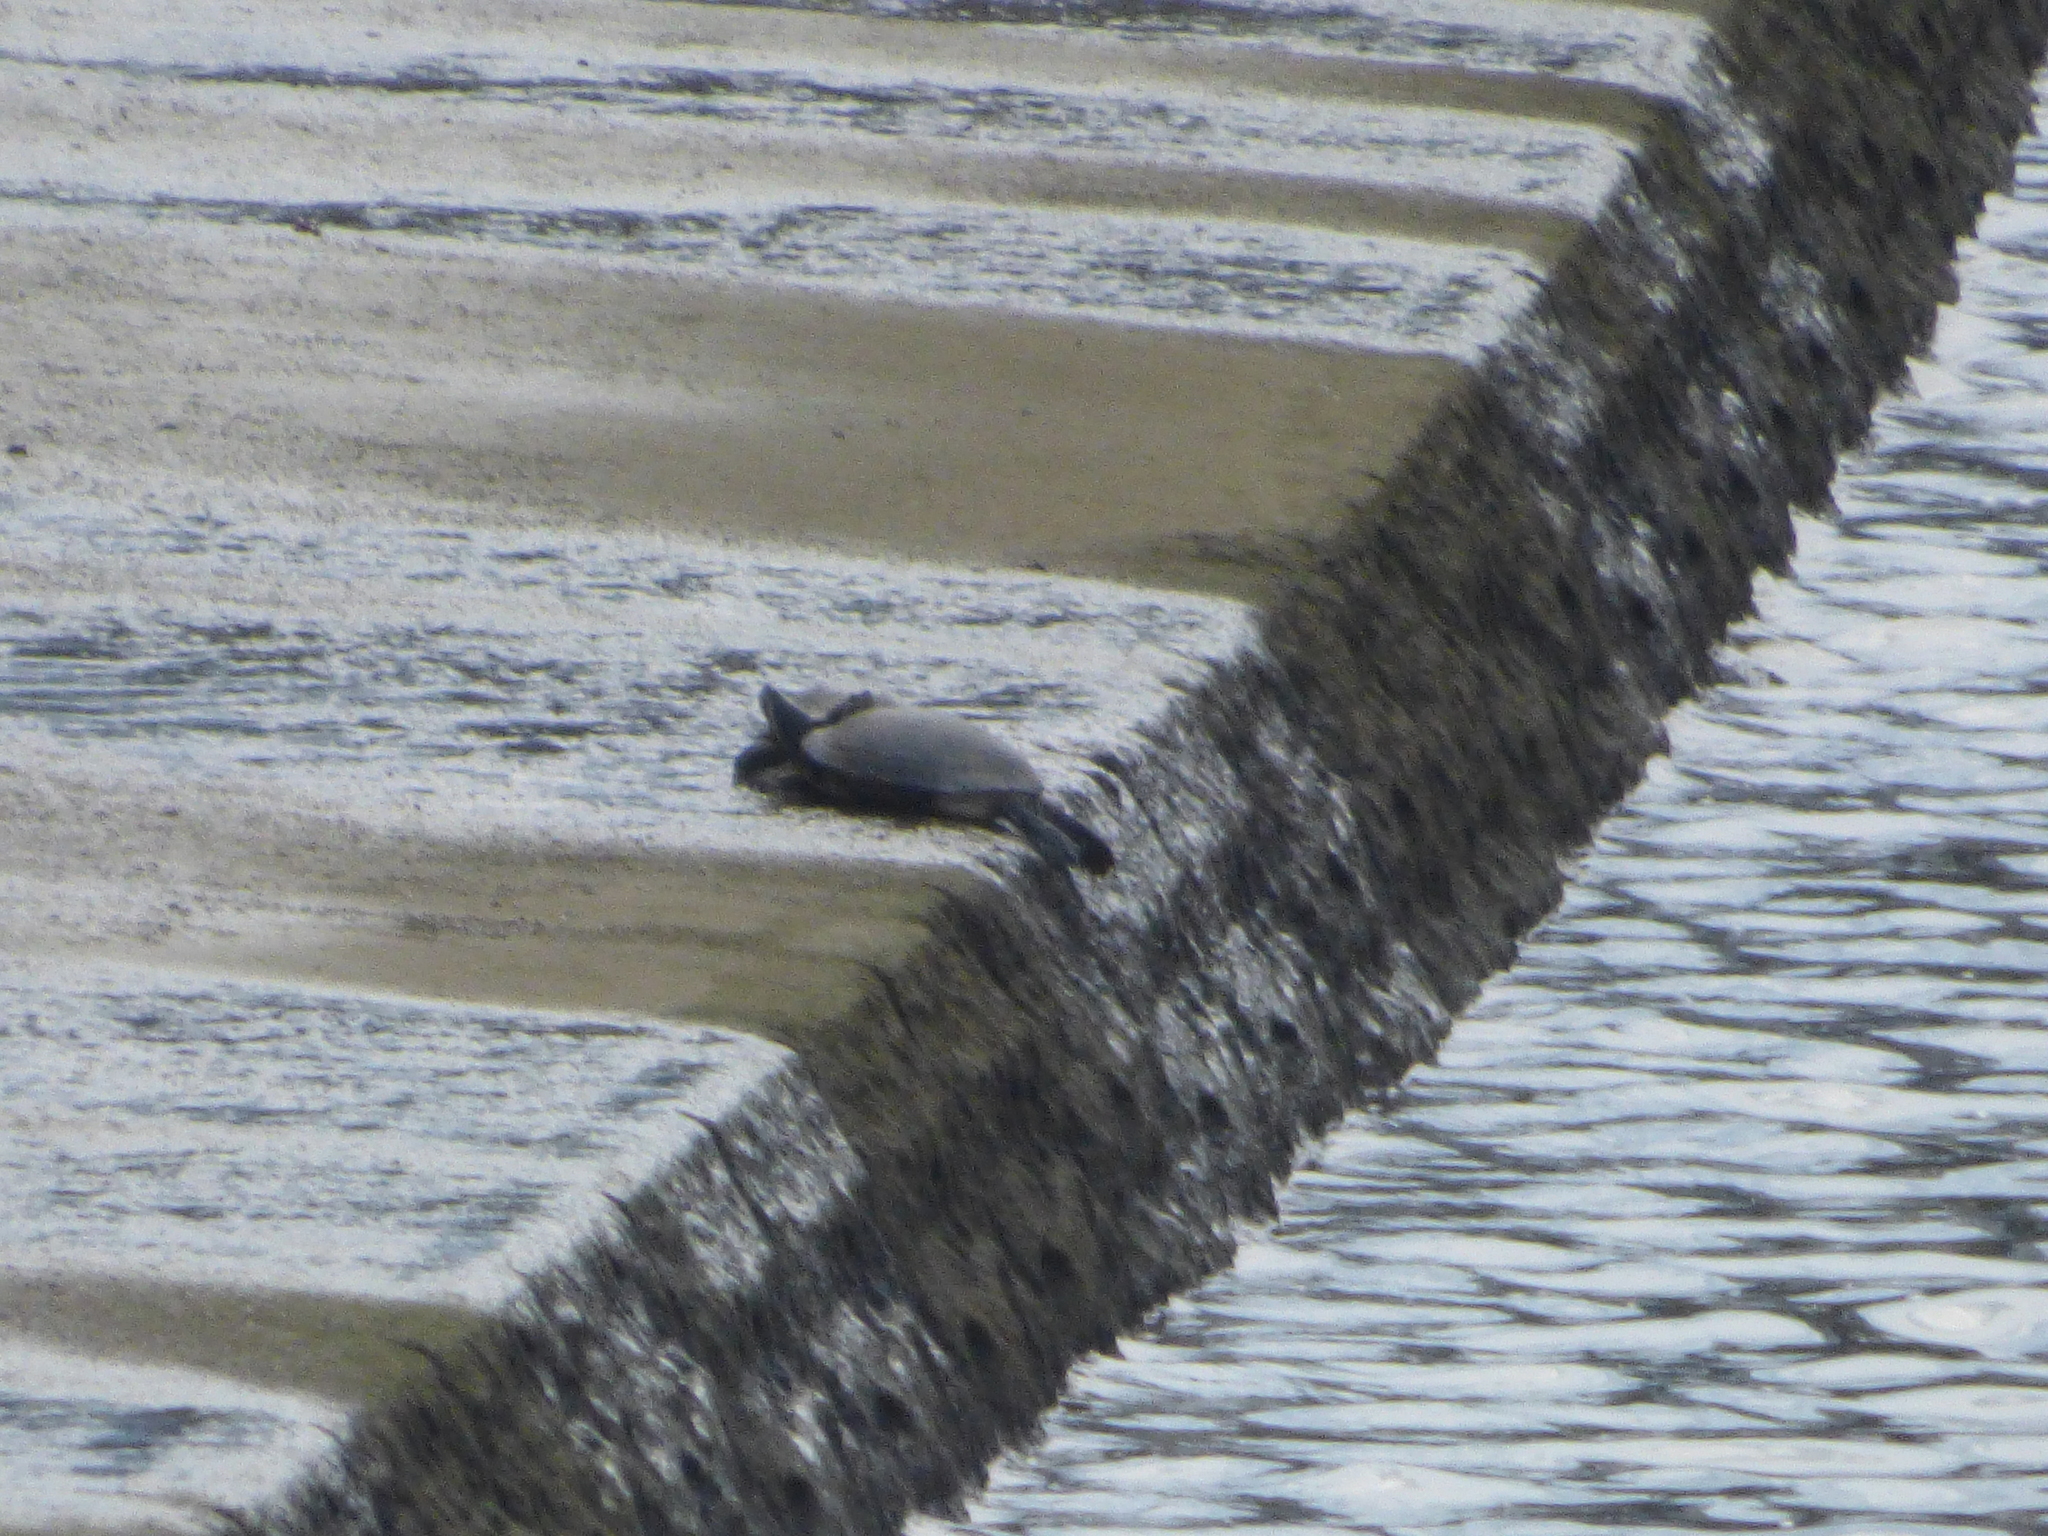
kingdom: Animalia
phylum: Chordata
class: Testudines
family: Emydidae
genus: Trachemys
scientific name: Trachemys scripta
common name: Slider
